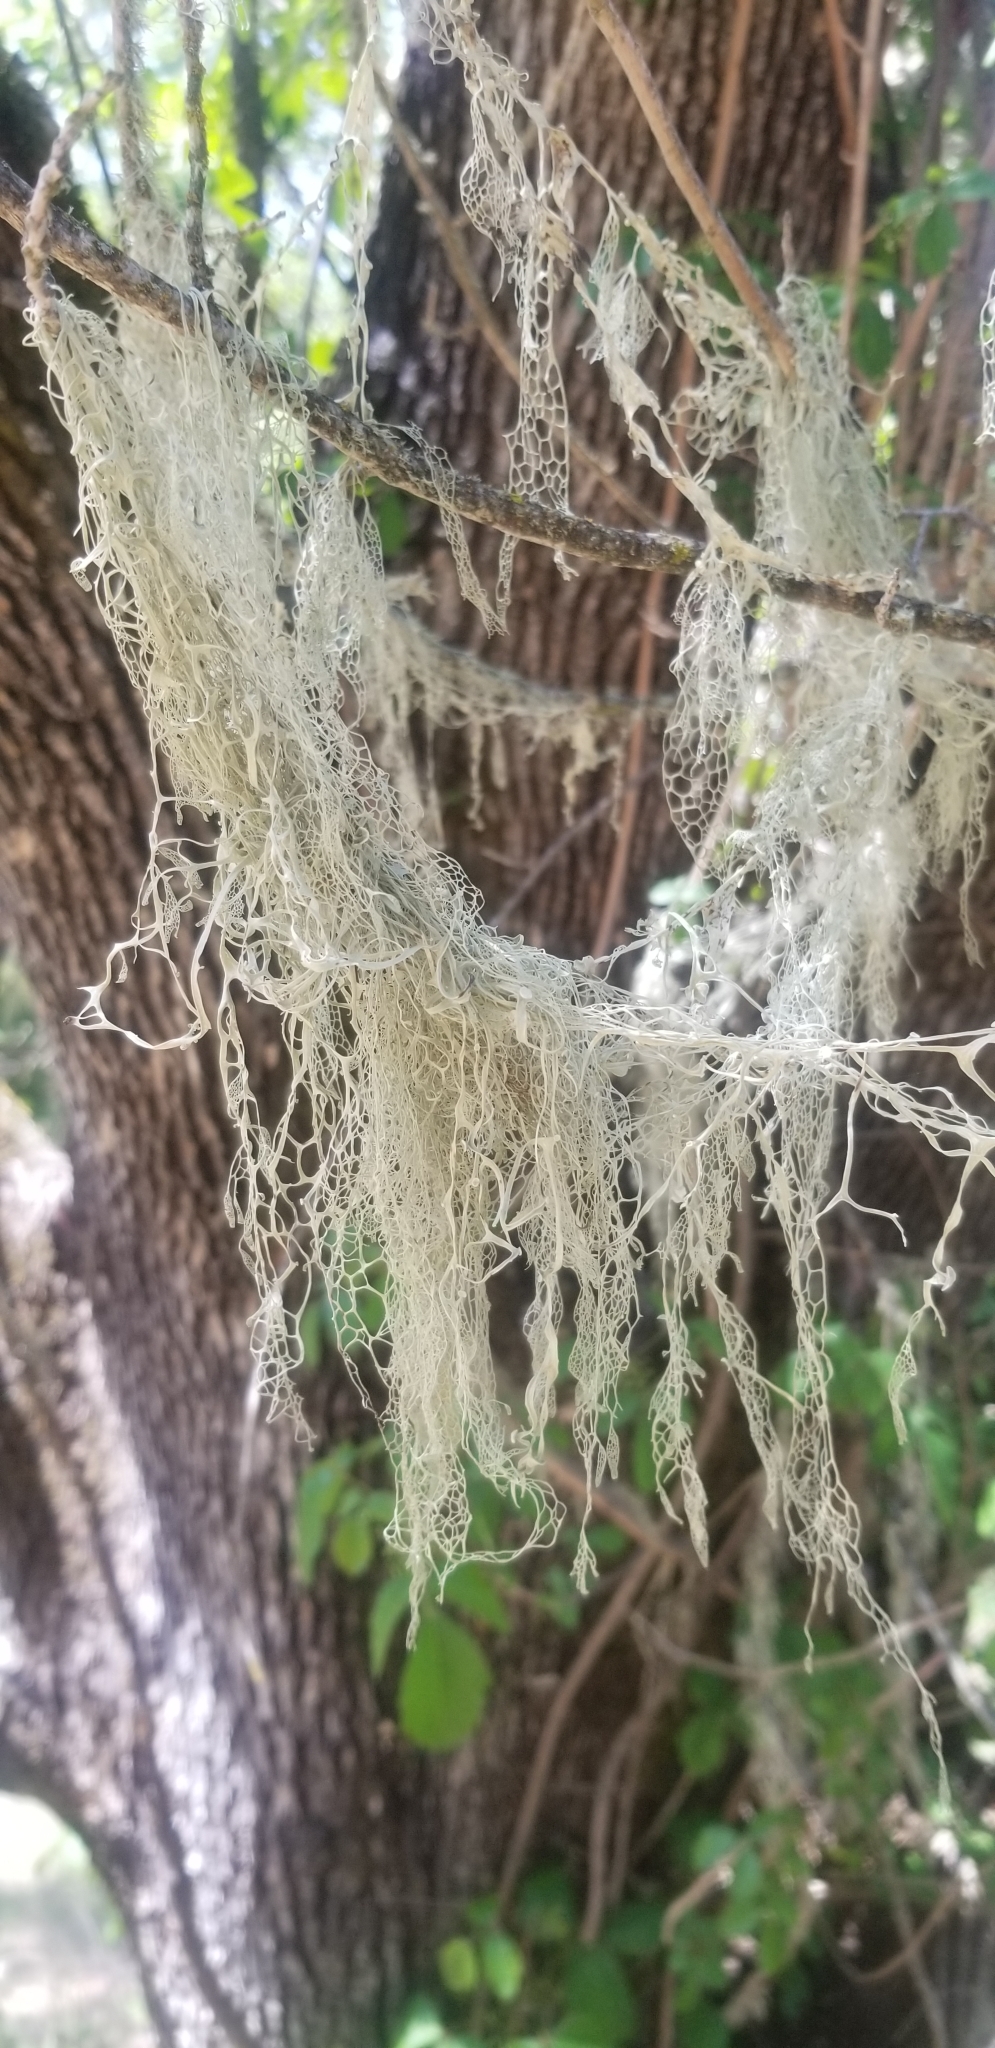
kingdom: Fungi
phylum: Ascomycota
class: Lecanoromycetes
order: Lecanorales
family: Ramalinaceae
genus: Ramalina
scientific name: Ramalina menziesii
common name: Lace lichen
